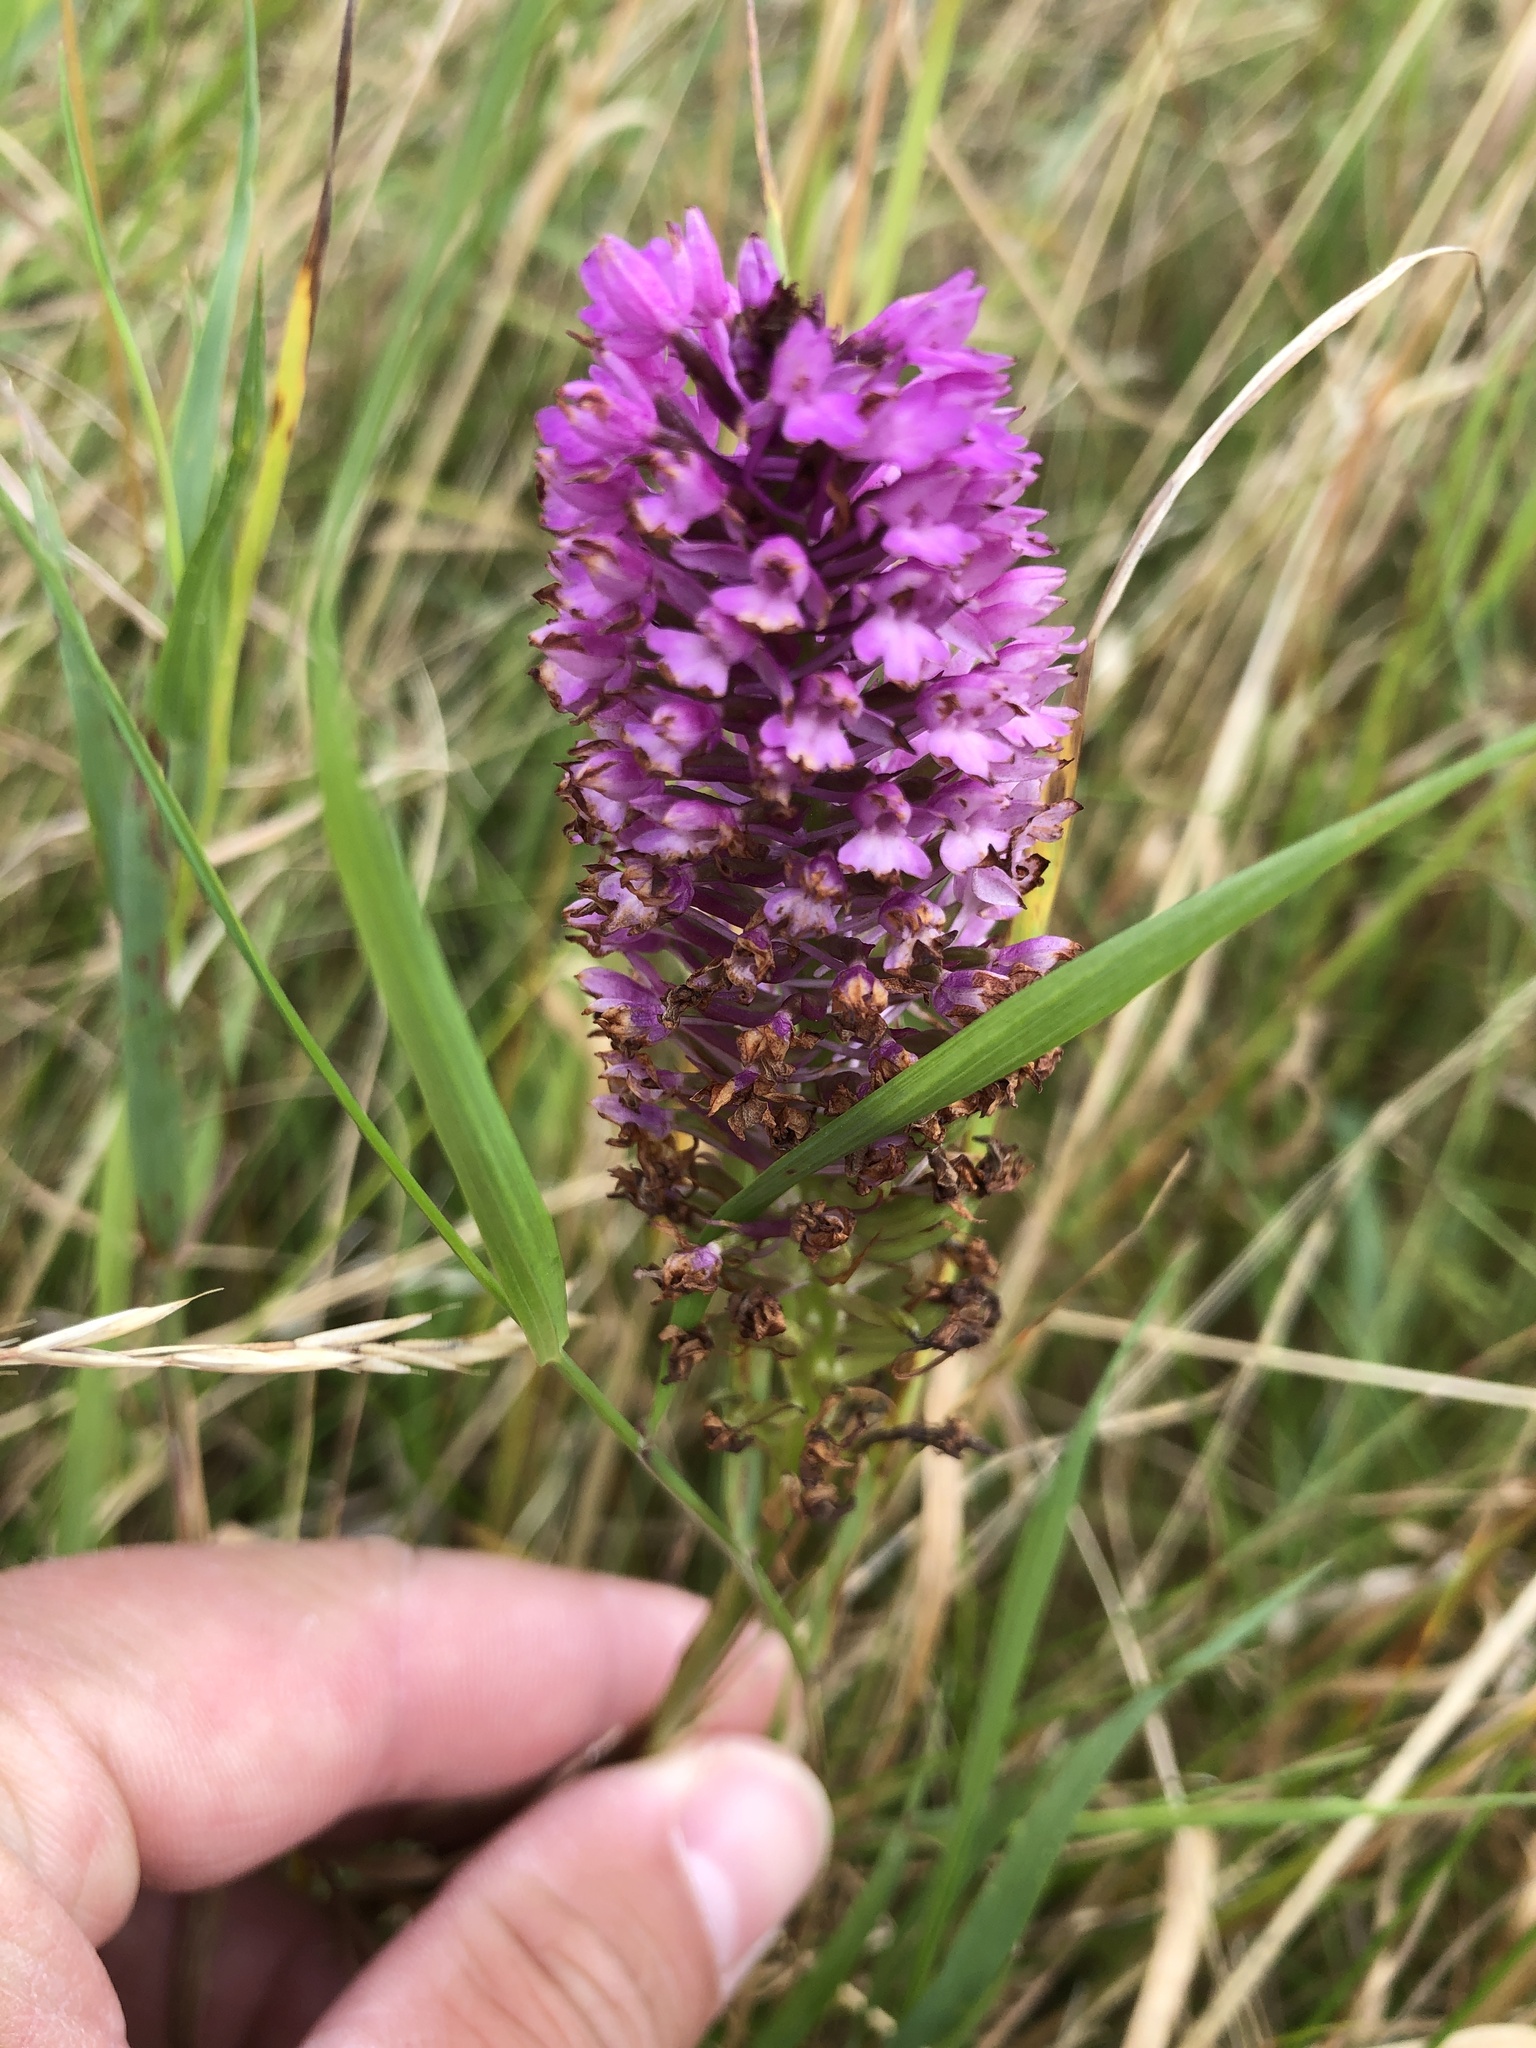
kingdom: Plantae
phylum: Tracheophyta
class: Liliopsida
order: Asparagales
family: Orchidaceae
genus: Anacamptis
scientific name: Anacamptis pyramidalis
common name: Pyramidal orchid
